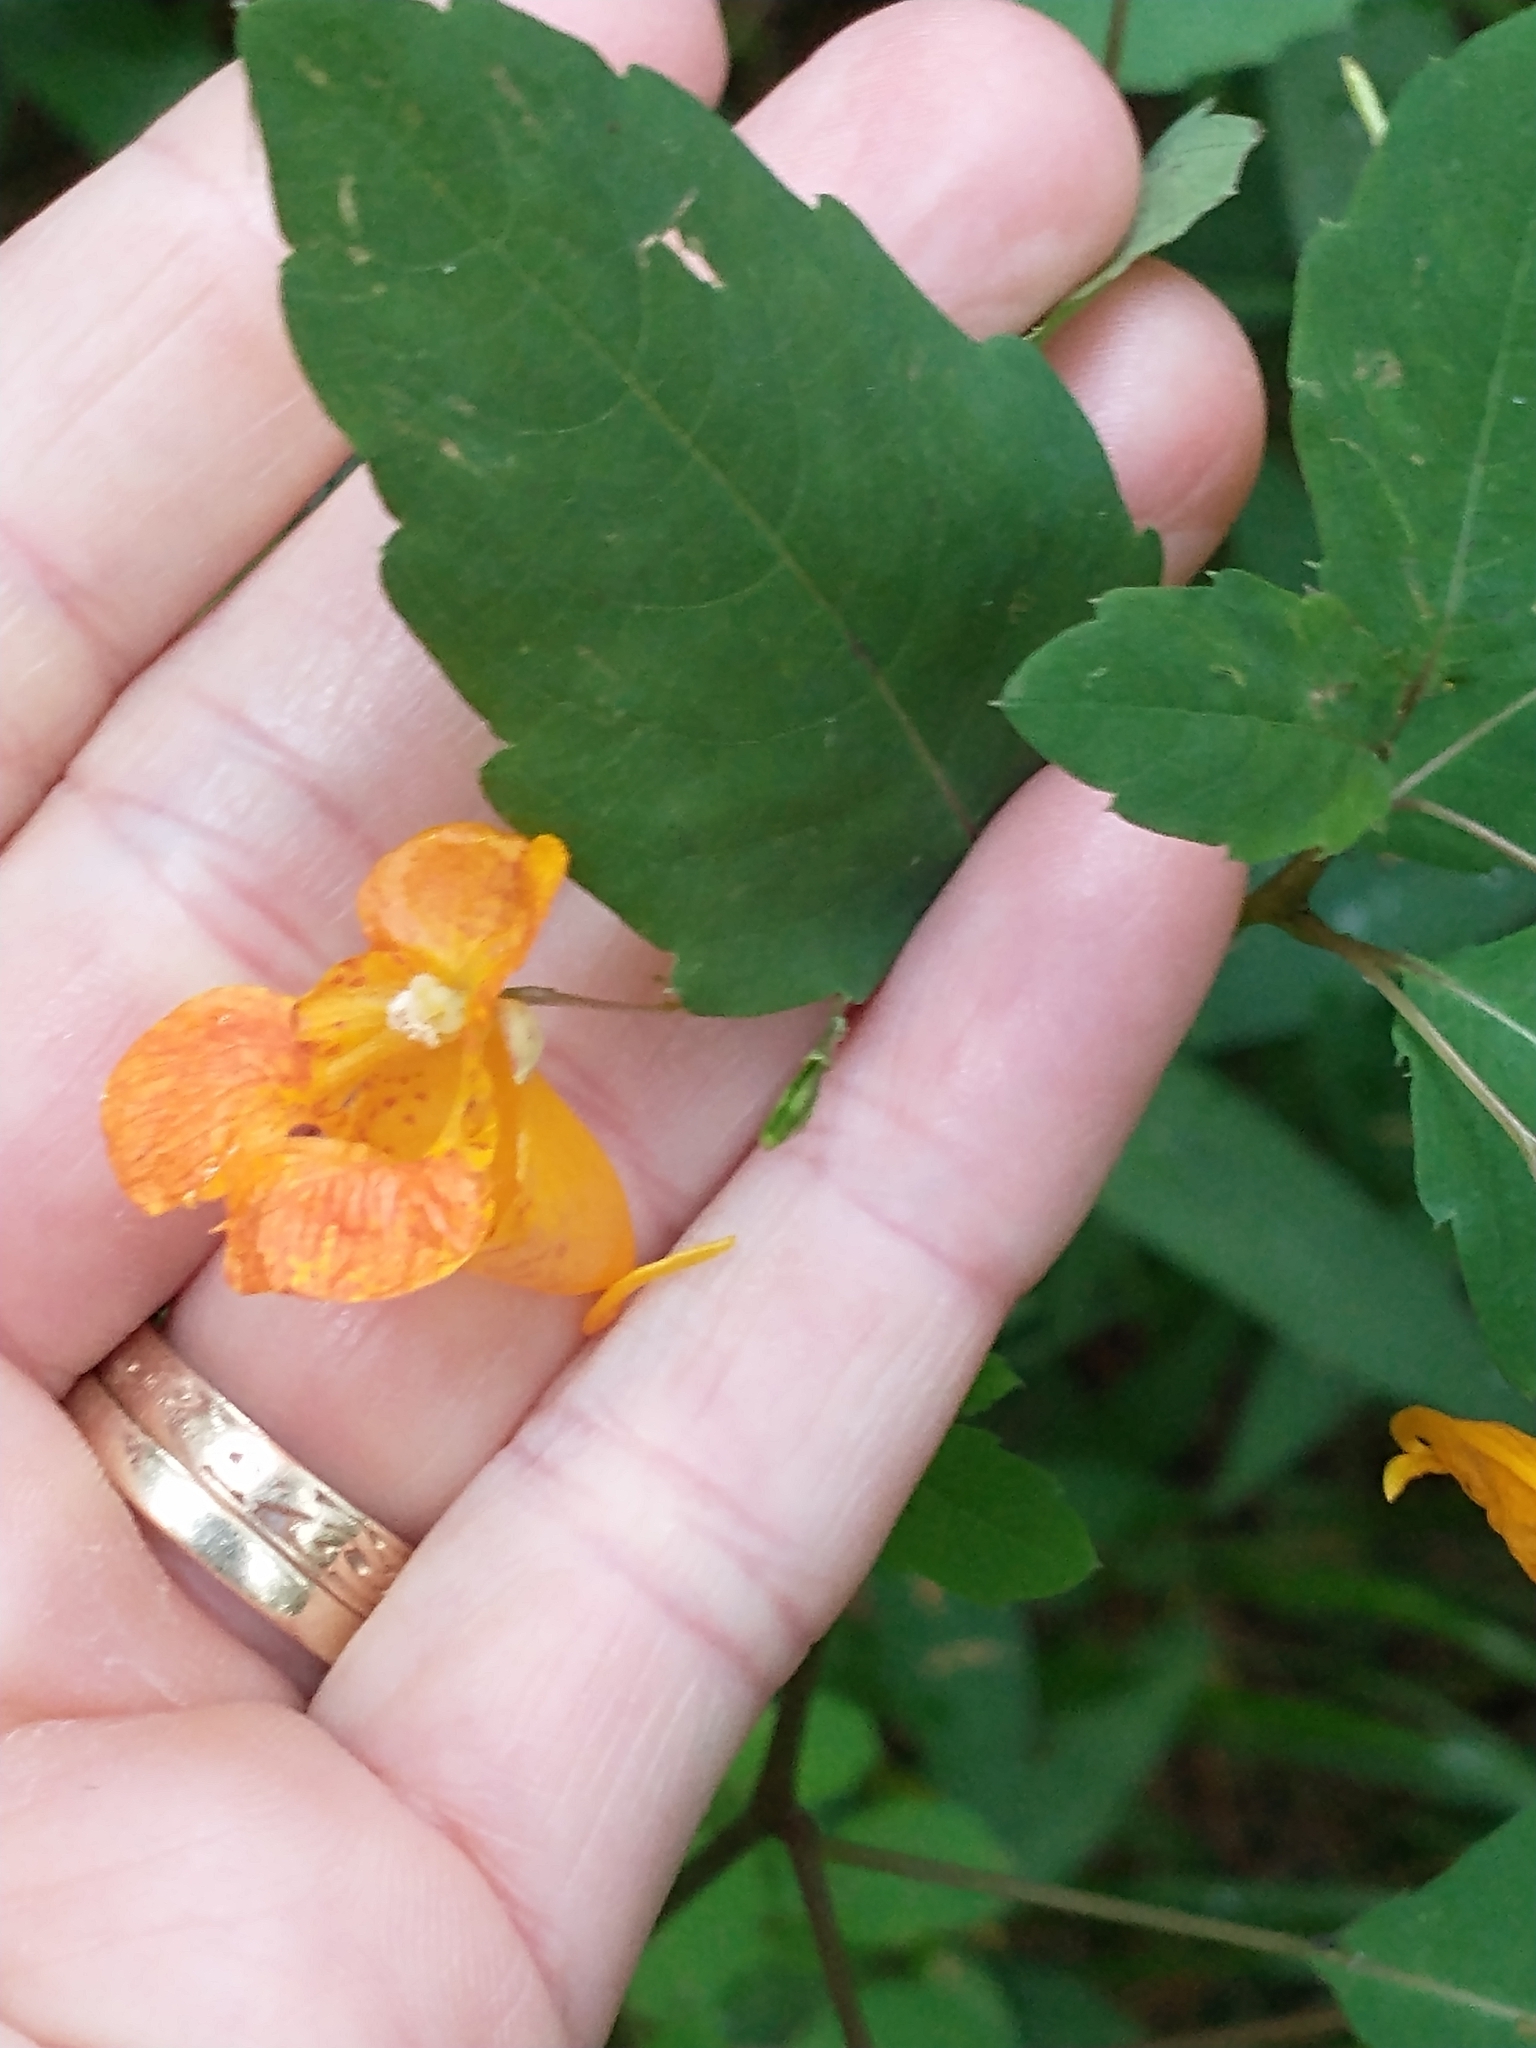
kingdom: Plantae
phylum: Tracheophyta
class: Magnoliopsida
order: Ericales
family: Balsaminaceae
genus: Impatiens
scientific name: Impatiens capensis
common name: Orange balsam
